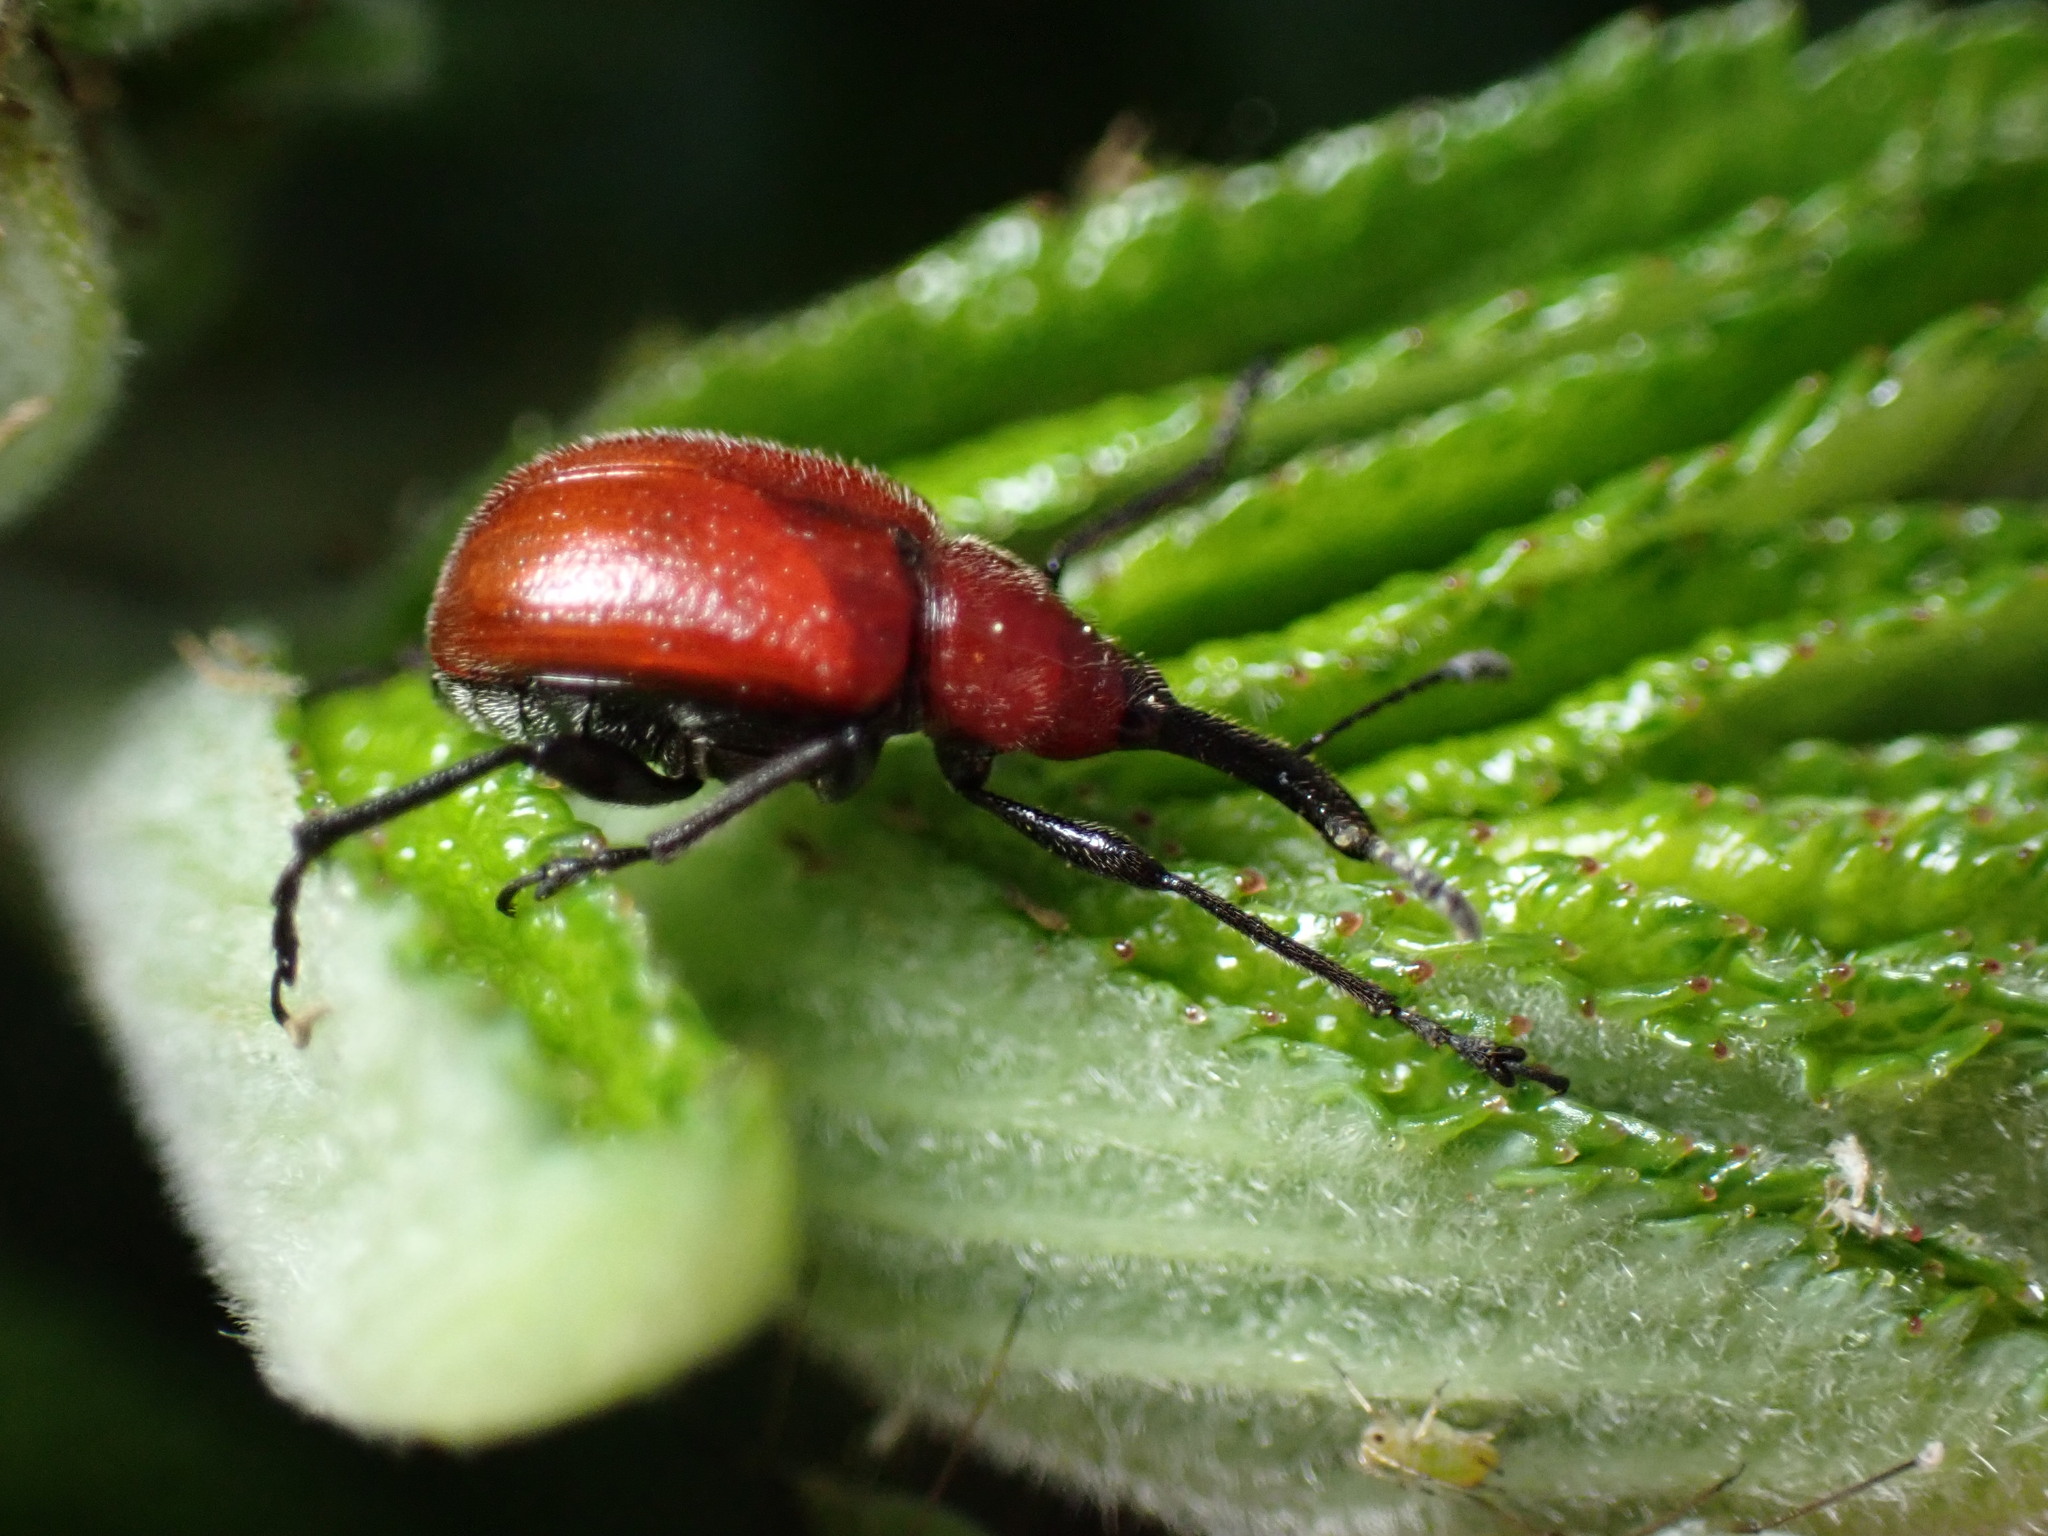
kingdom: Animalia
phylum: Arthropoda
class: Insecta
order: Coleoptera
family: Attelabidae
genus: Merhynchites
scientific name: Merhynchites bicolor
